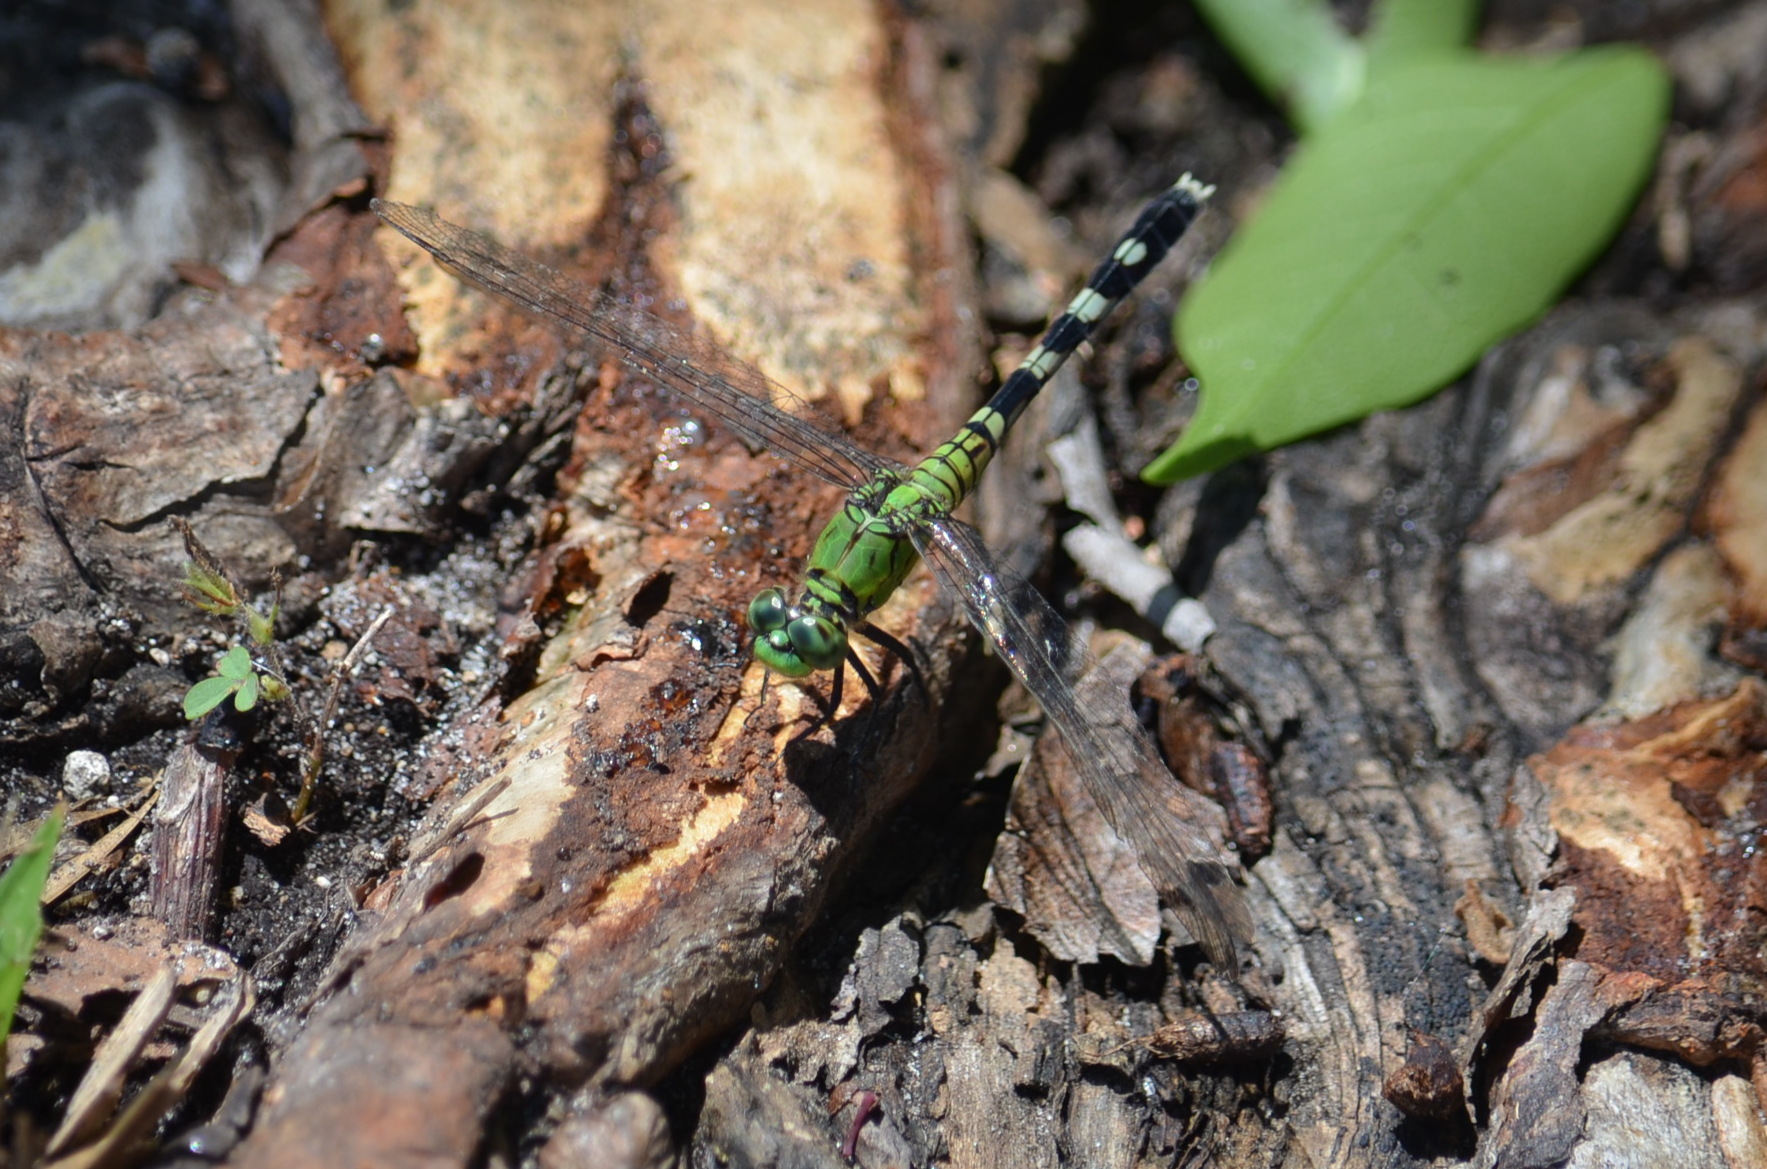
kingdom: Animalia
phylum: Arthropoda
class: Insecta
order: Odonata
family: Libellulidae
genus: Erythemis
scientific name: Erythemis simplicicollis
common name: Eastern pondhawk
